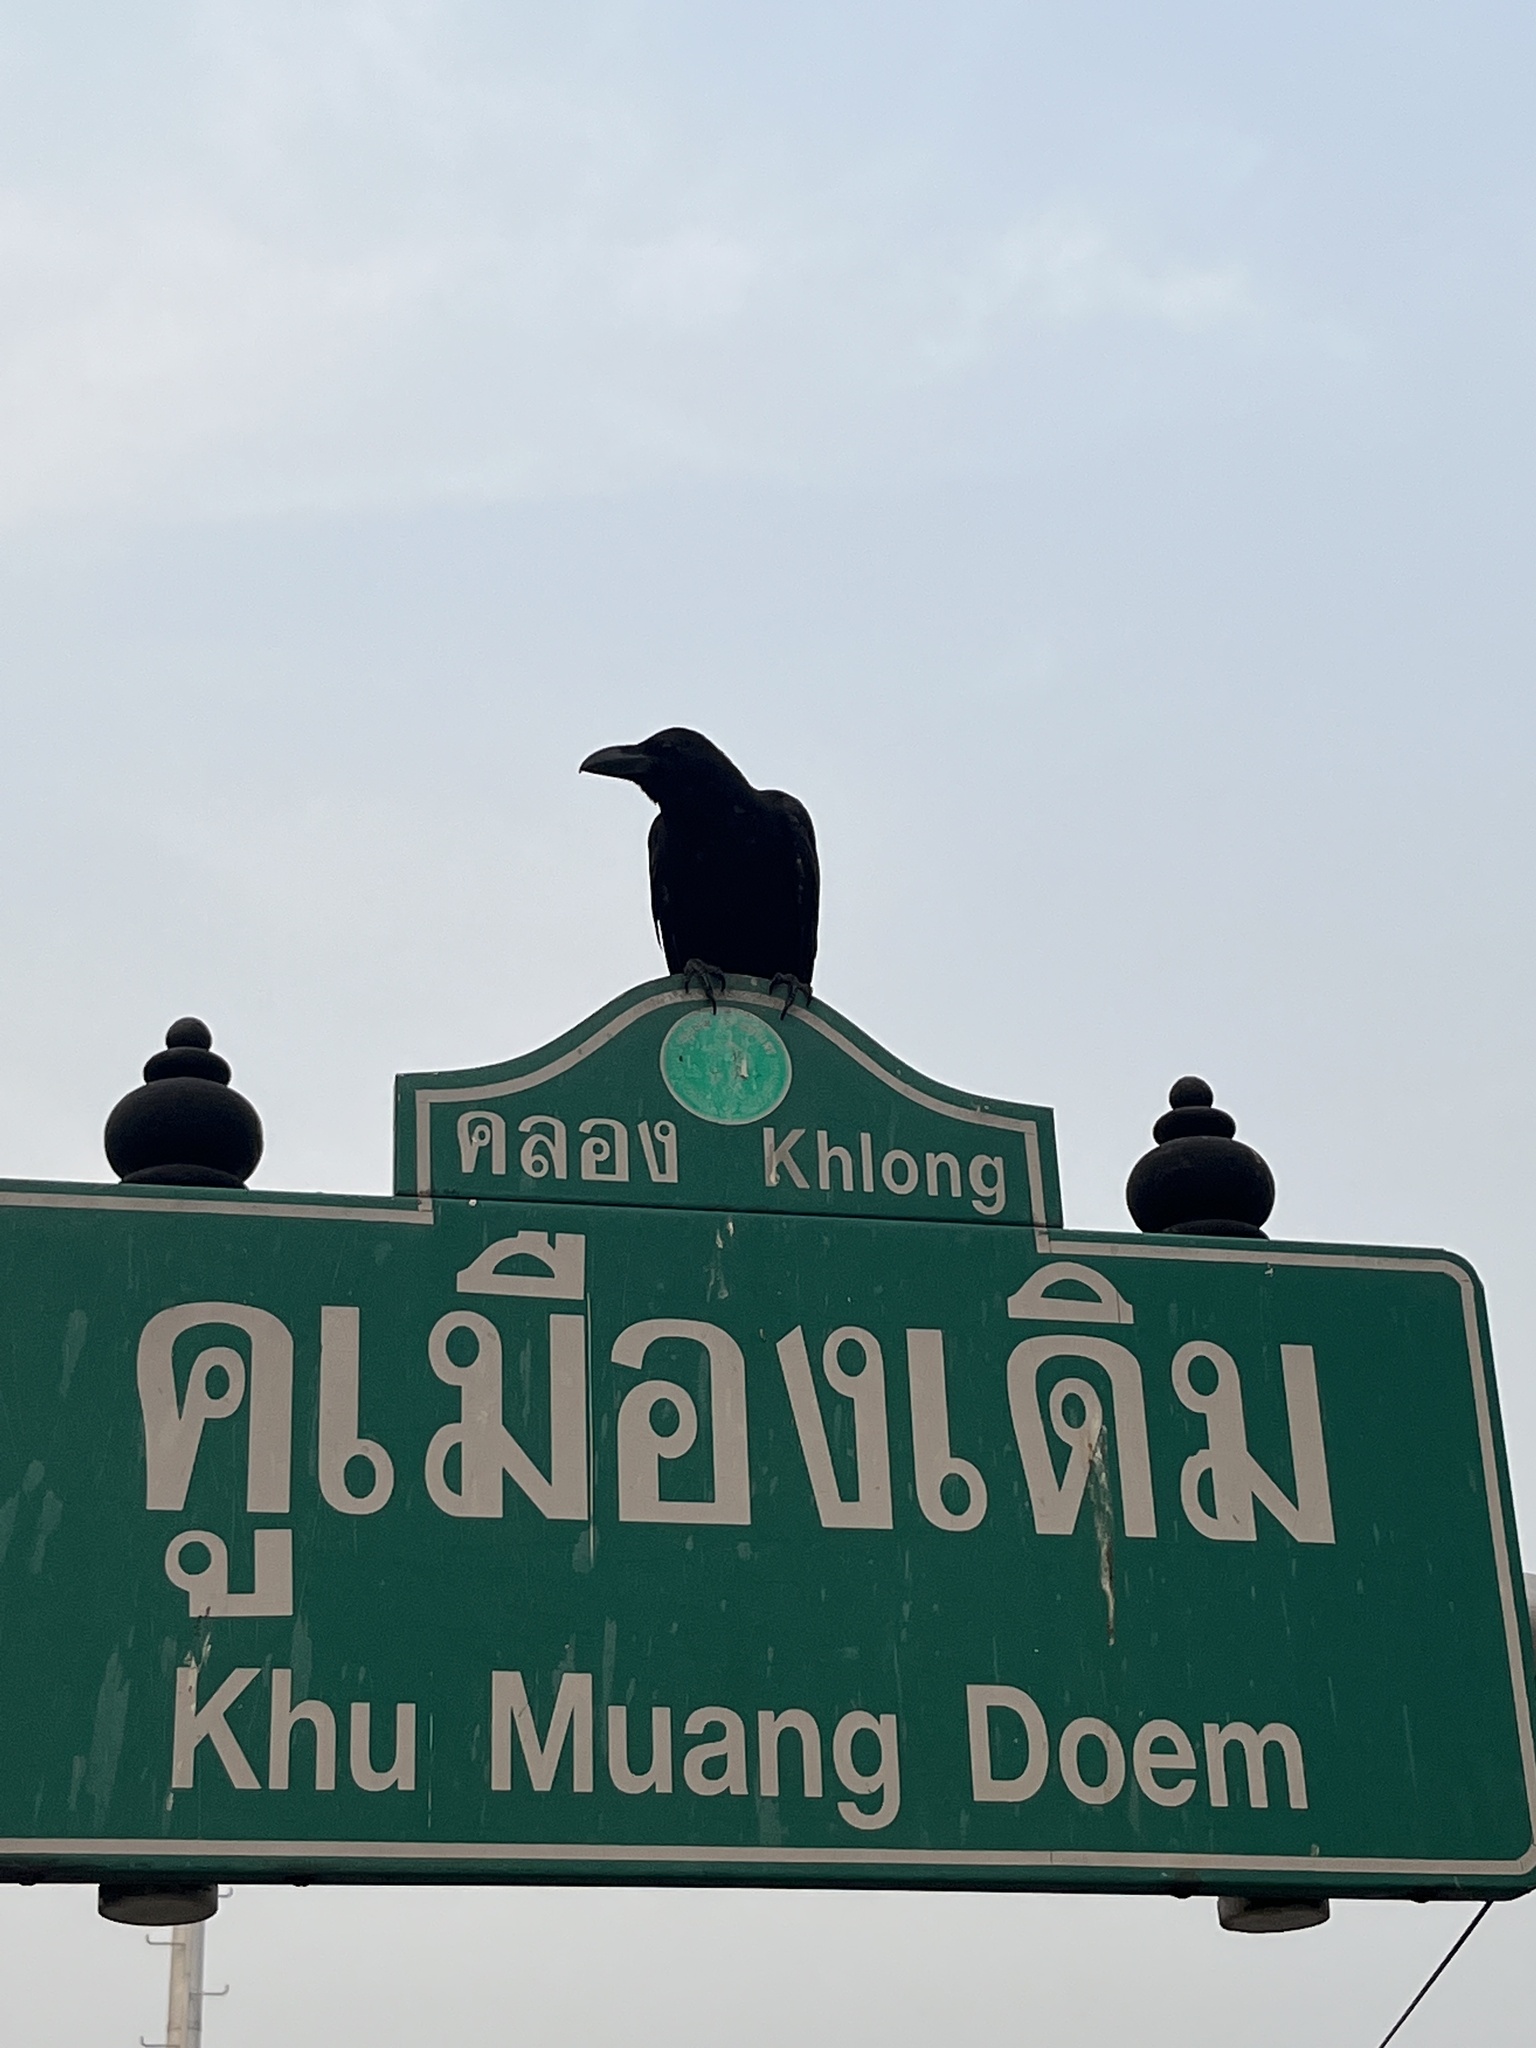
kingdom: Animalia
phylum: Chordata
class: Aves
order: Passeriformes
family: Corvidae
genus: Corvus
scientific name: Corvus macrorhynchos
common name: Large-billed crow
